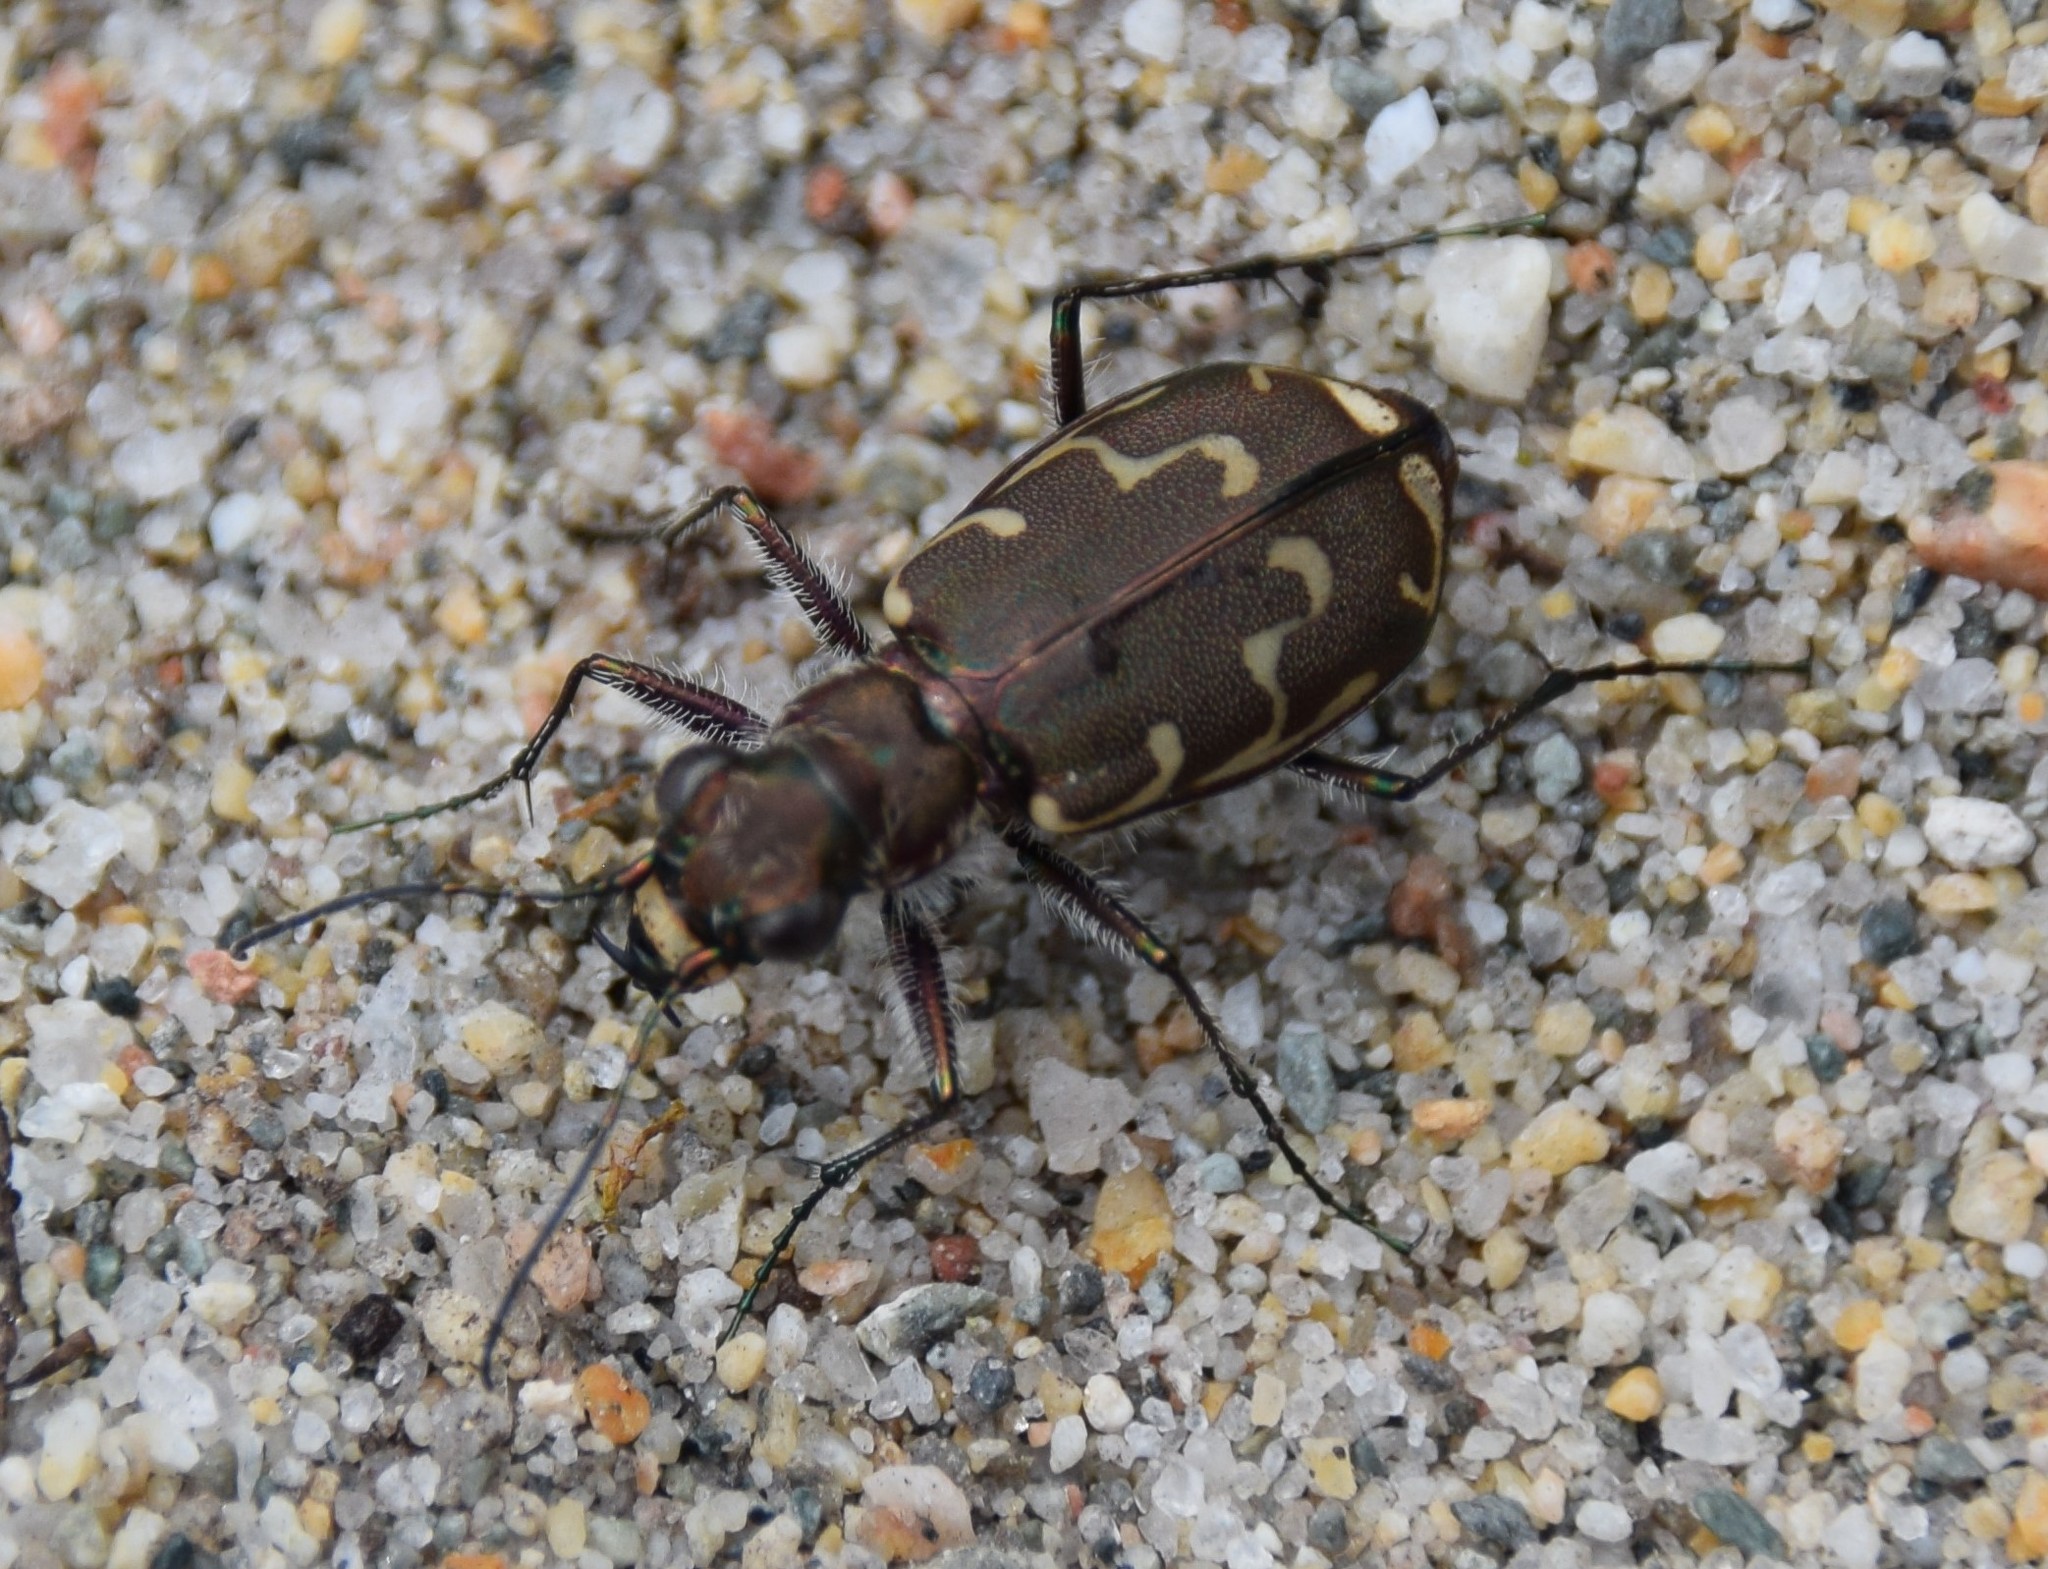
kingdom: Animalia
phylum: Arthropoda
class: Insecta
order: Coleoptera
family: Carabidae
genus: Cicindela
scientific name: Cicindela repanda
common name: Bronzed tiger beetle
